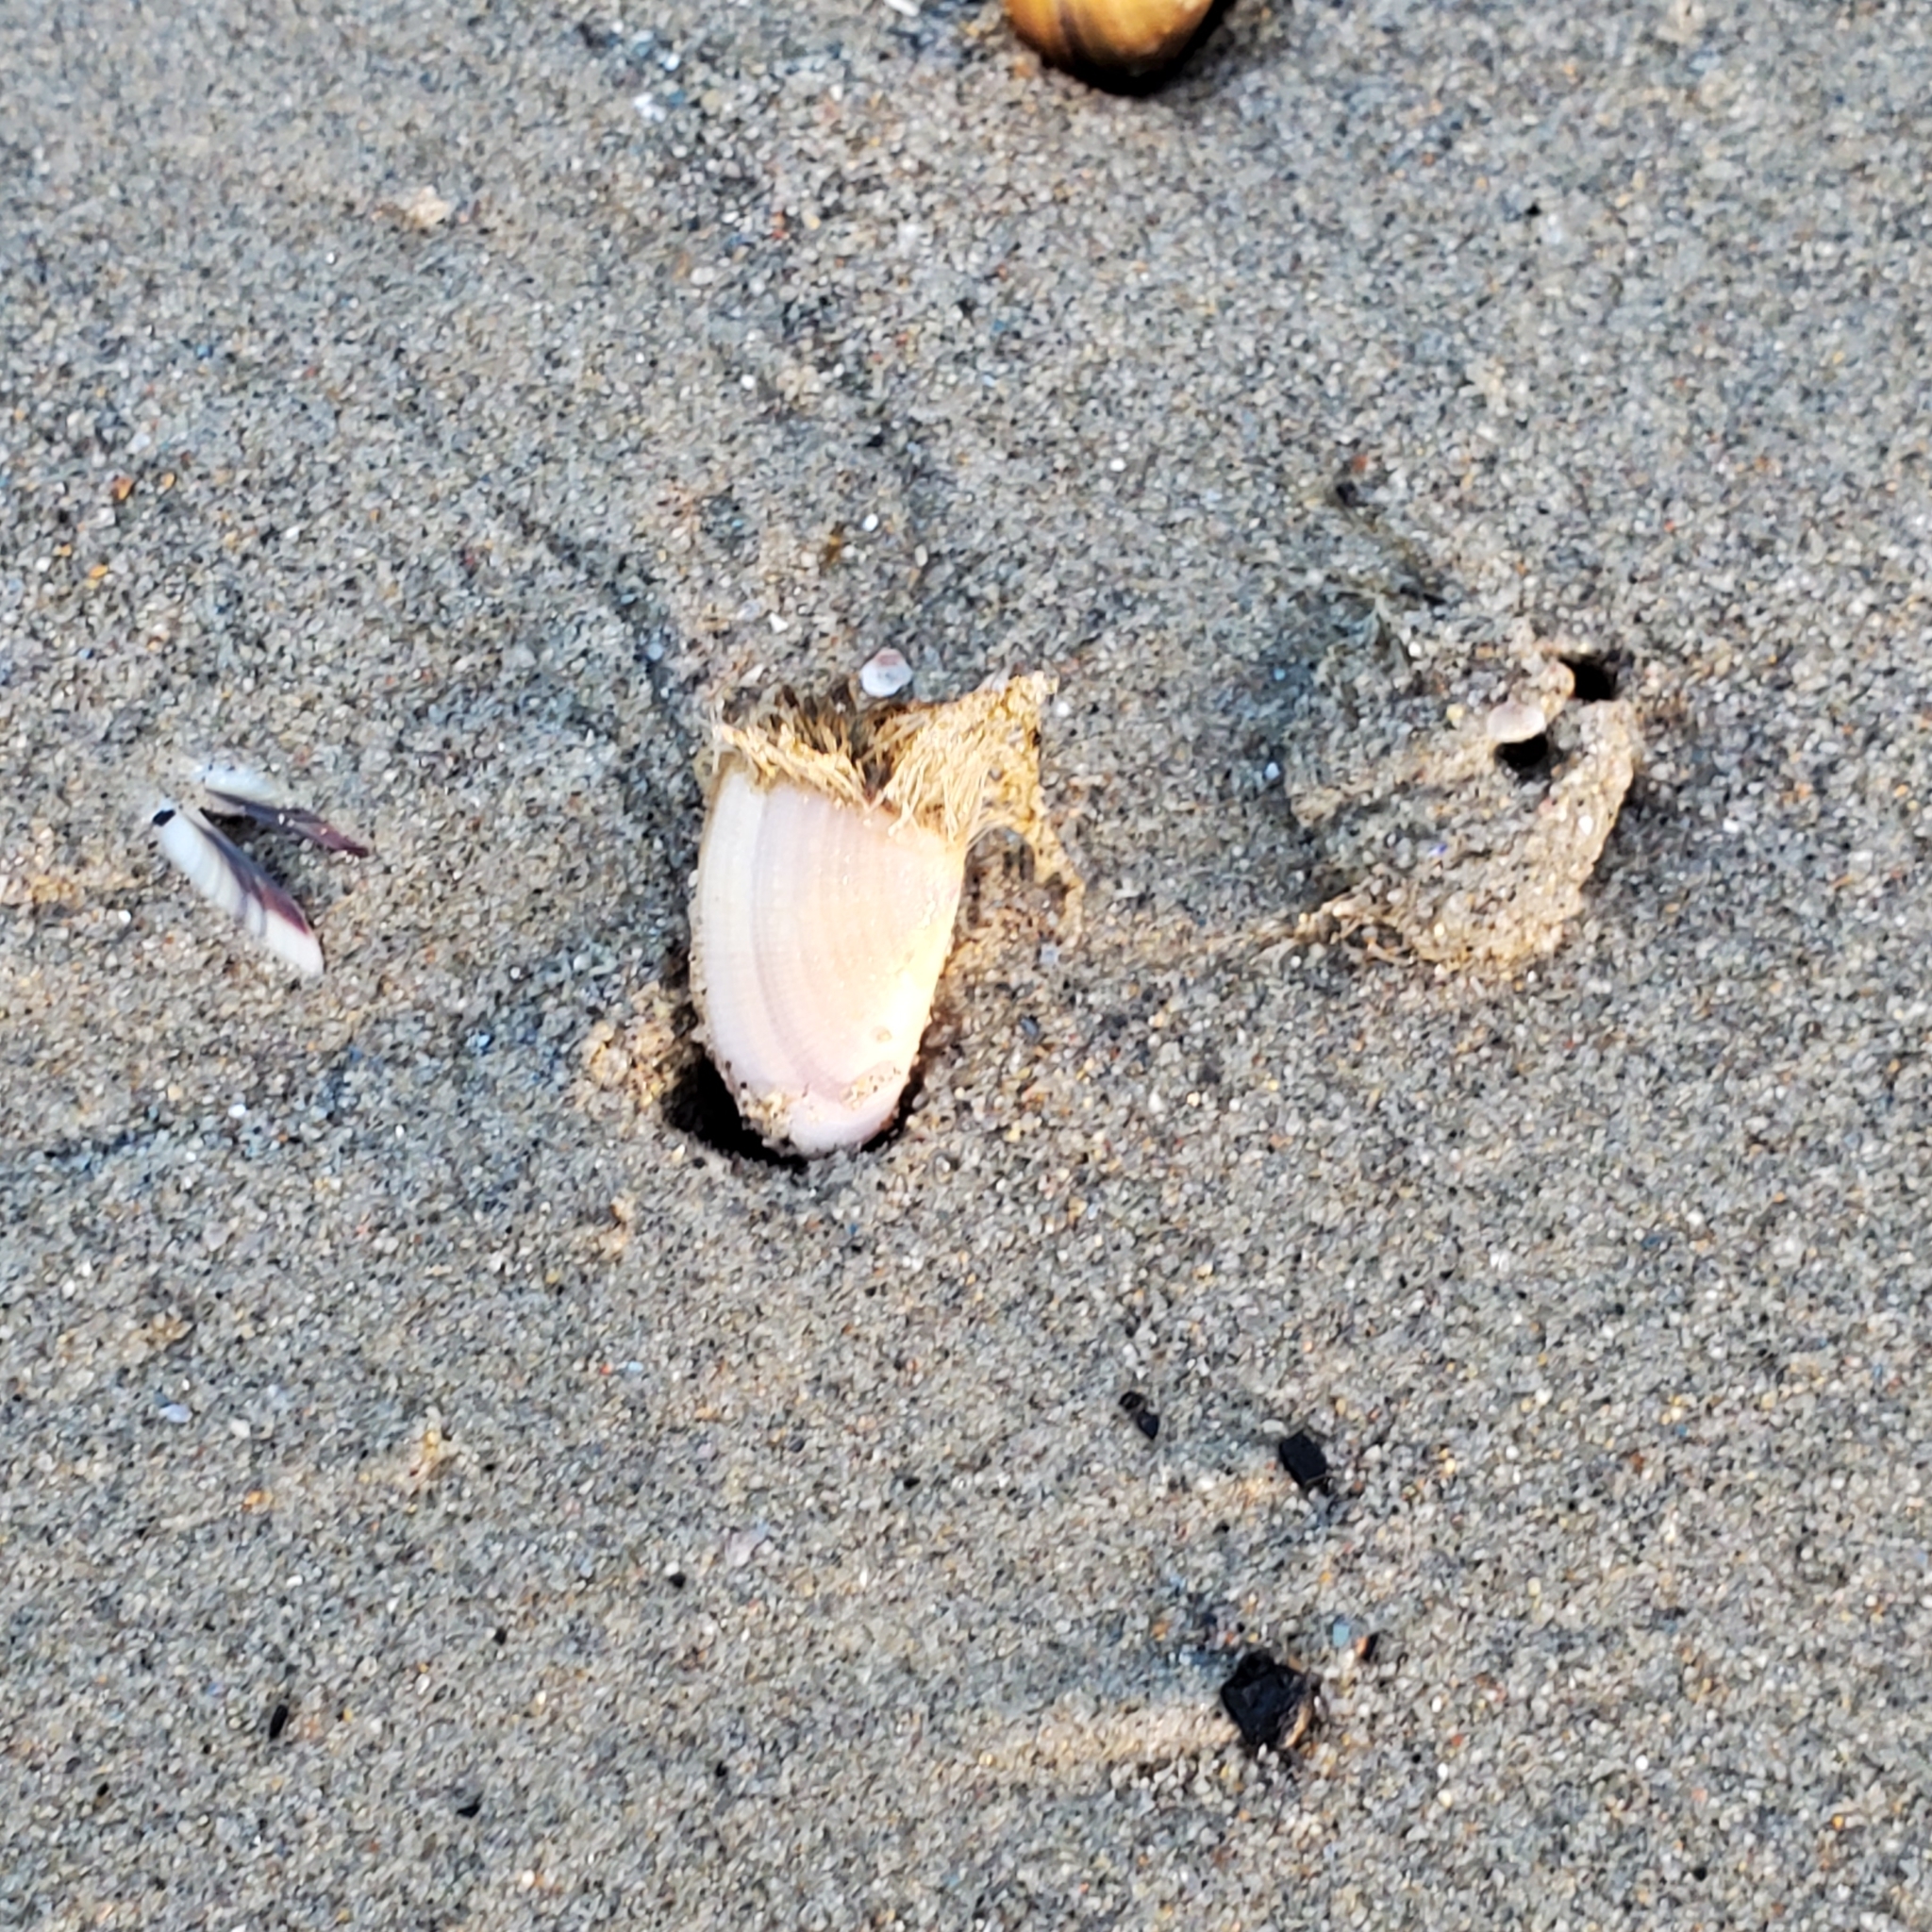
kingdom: Animalia
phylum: Mollusca
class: Bivalvia
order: Cardiida
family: Donacidae
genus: Donax
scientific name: Donax gouldii
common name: Gould beanclam
